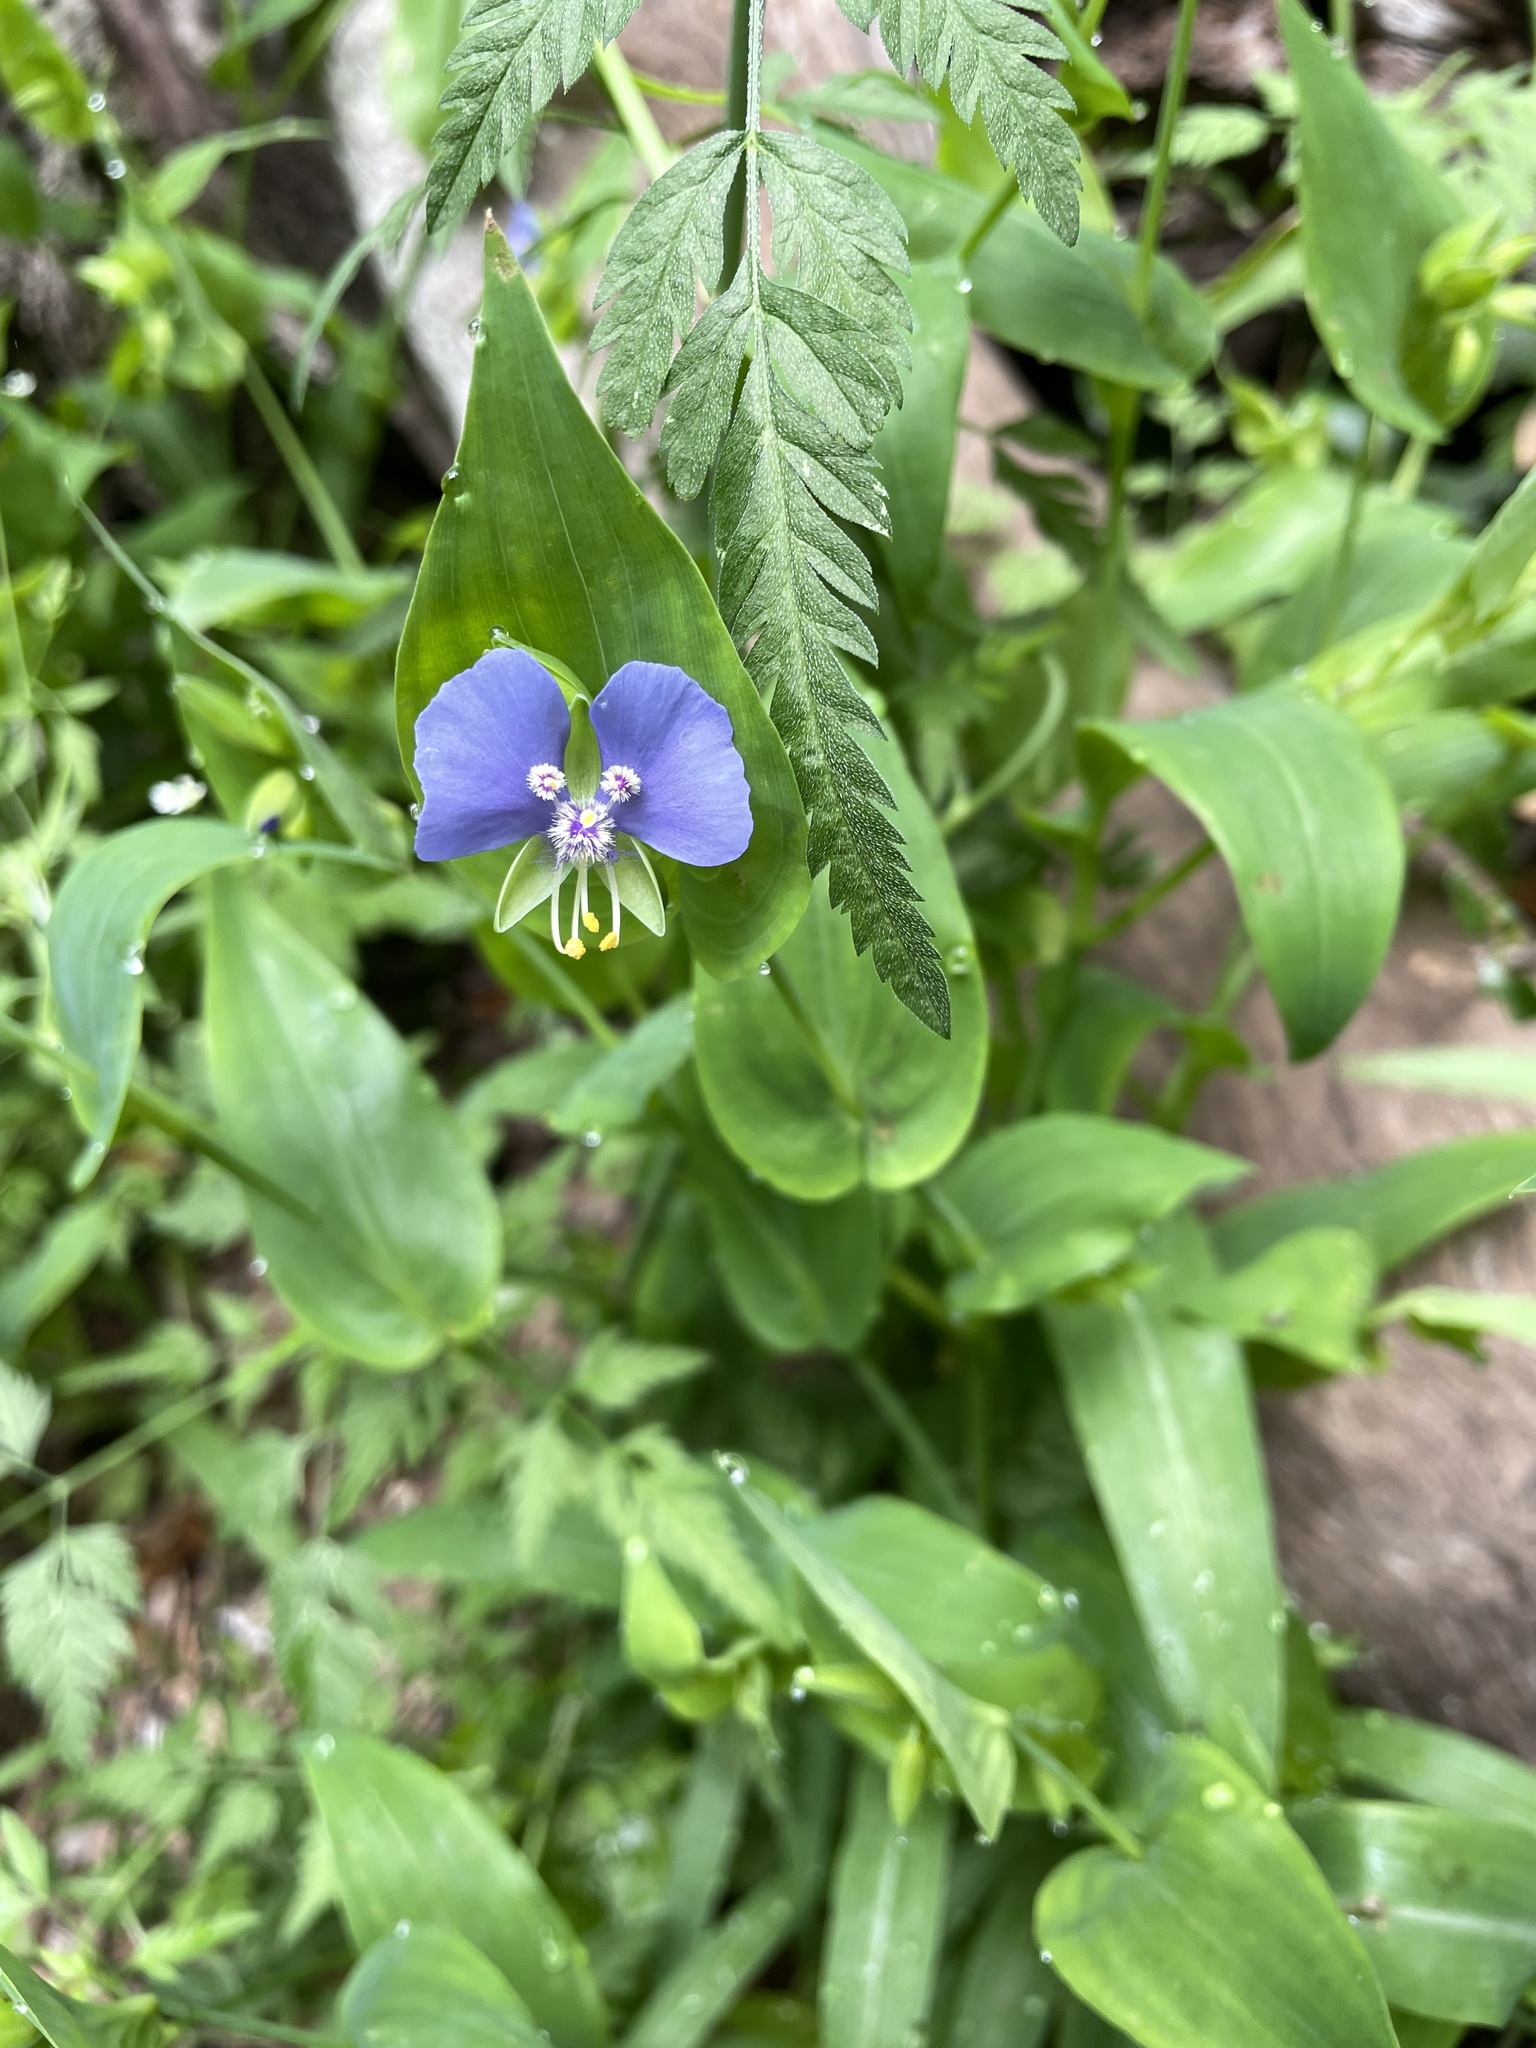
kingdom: Plantae
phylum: Tracheophyta
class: Liliopsida
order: Commelinales
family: Commelinaceae
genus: Tinantia
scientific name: Tinantia anomala
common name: False dayflower
